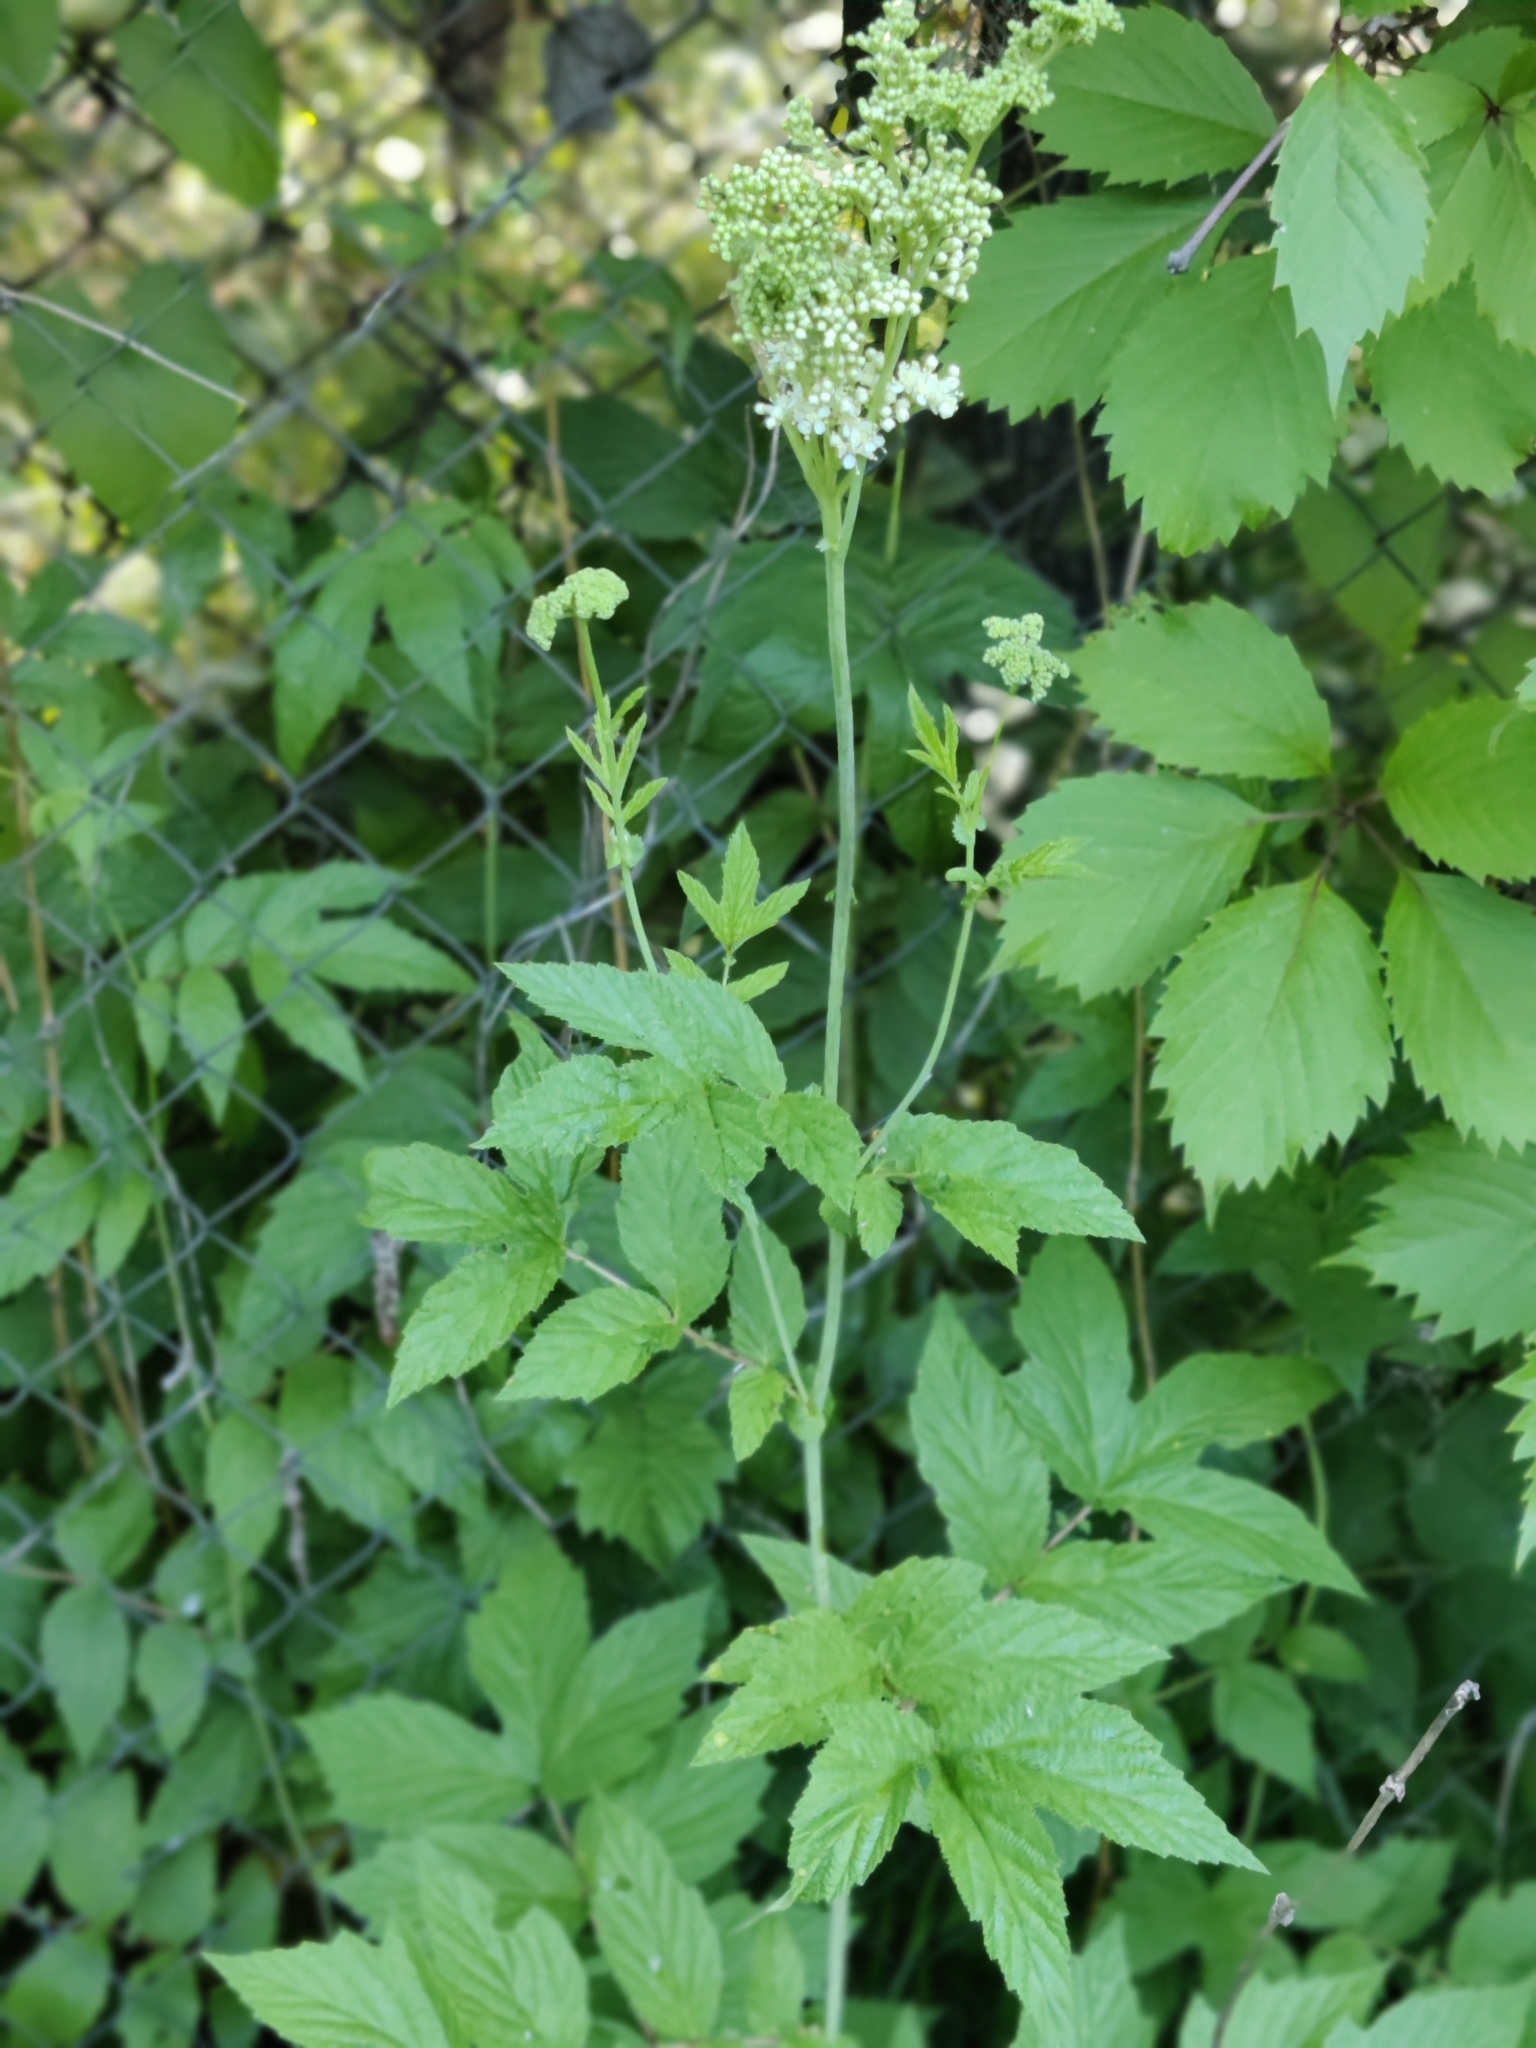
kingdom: Plantae
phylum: Tracheophyta
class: Magnoliopsida
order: Rosales
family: Rosaceae
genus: Filipendula
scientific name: Filipendula ulmaria
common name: Meadowsweet
